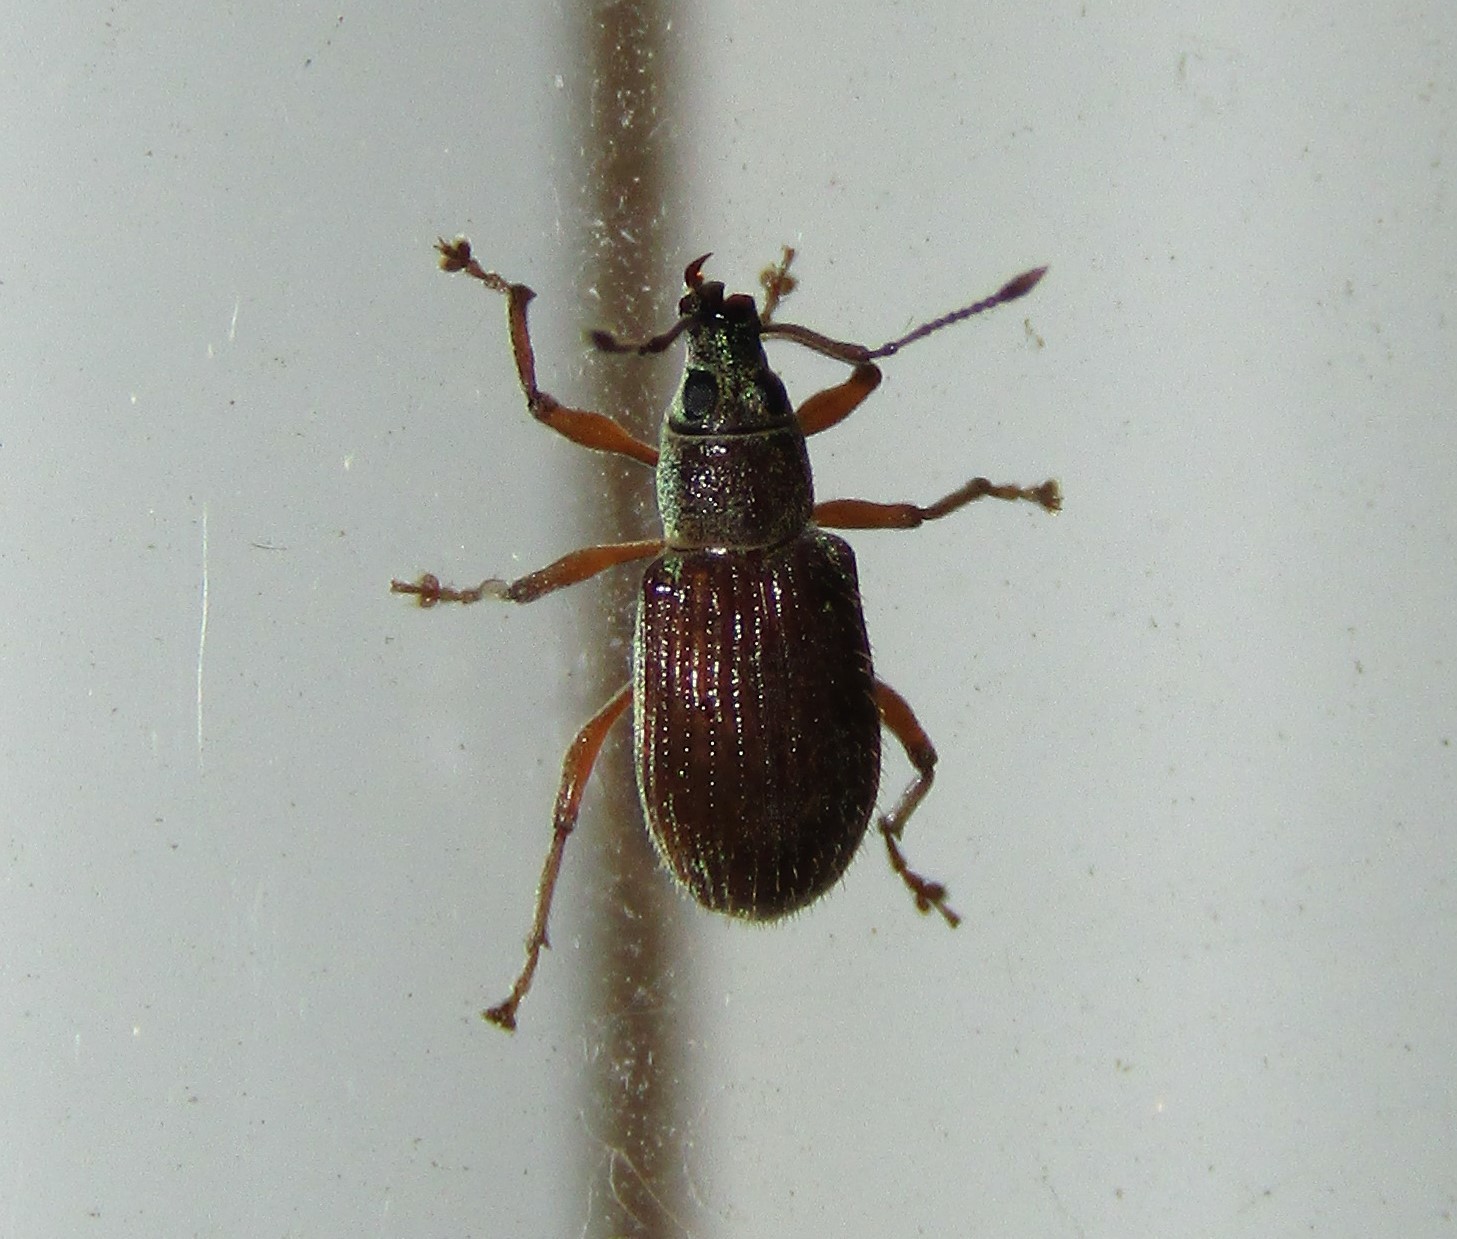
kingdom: Animalia
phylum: Arthropoda
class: Insecta
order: Coleoptera
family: Curculionidae
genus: Cyrtepistomus
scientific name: Cyrtepistomus castaneus
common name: Weevil
